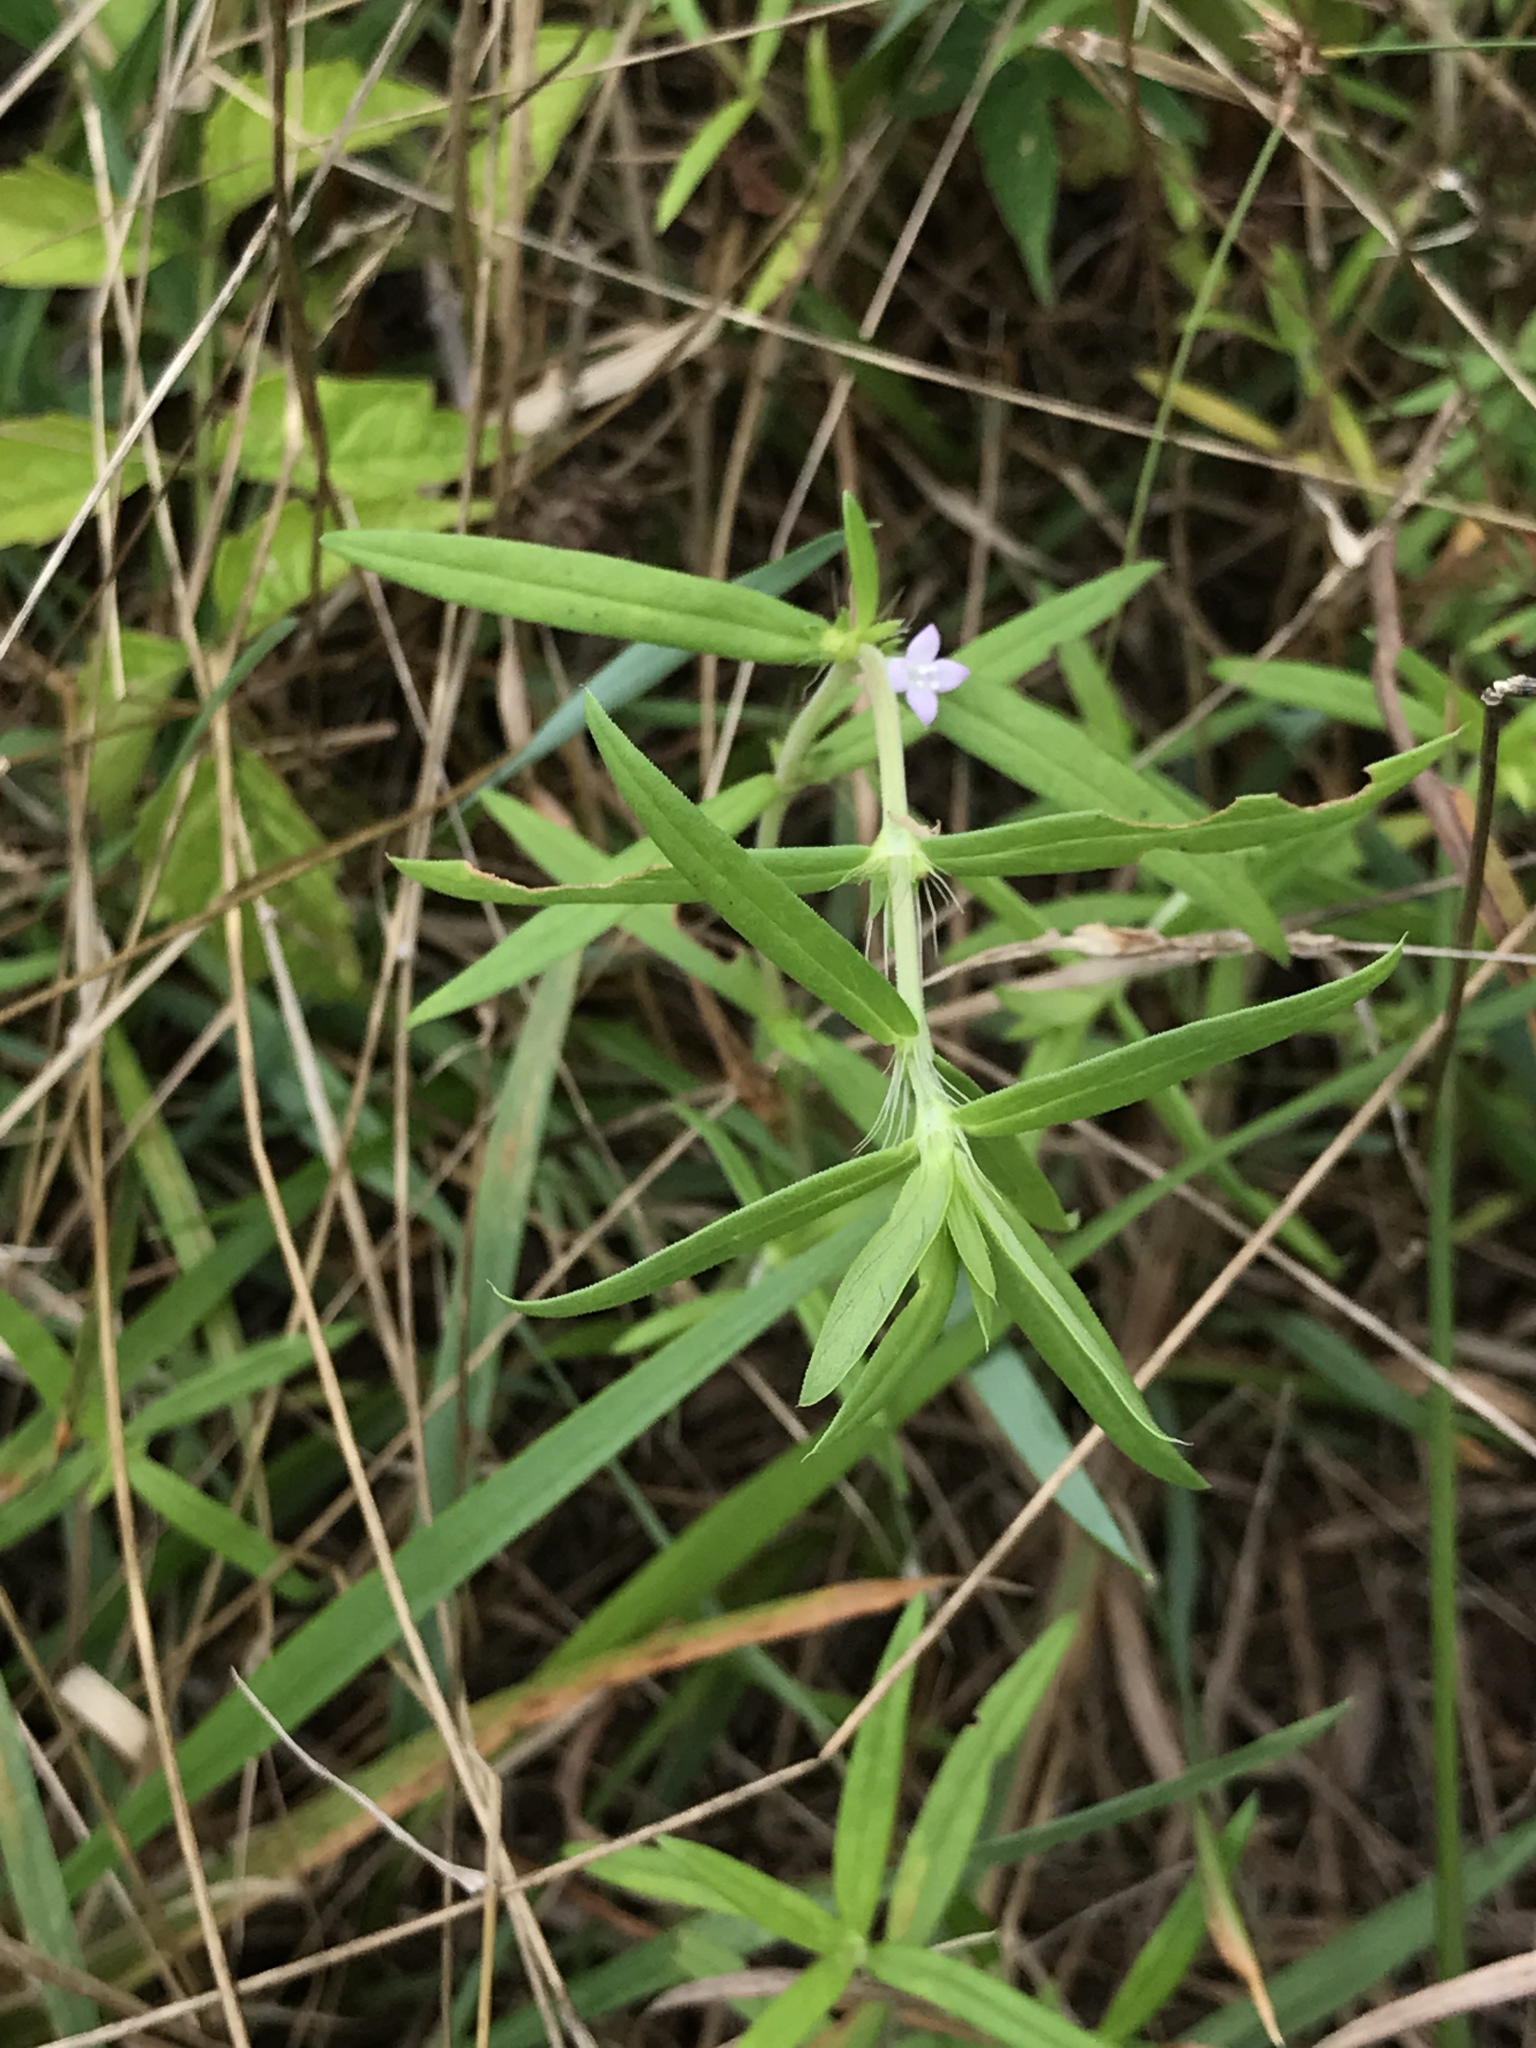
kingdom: Plantae
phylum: Tracheophyta
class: Magnoliopsida
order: Gentianales
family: Rubiaceae
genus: Hexasepalum
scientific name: Hexasepalum teres
